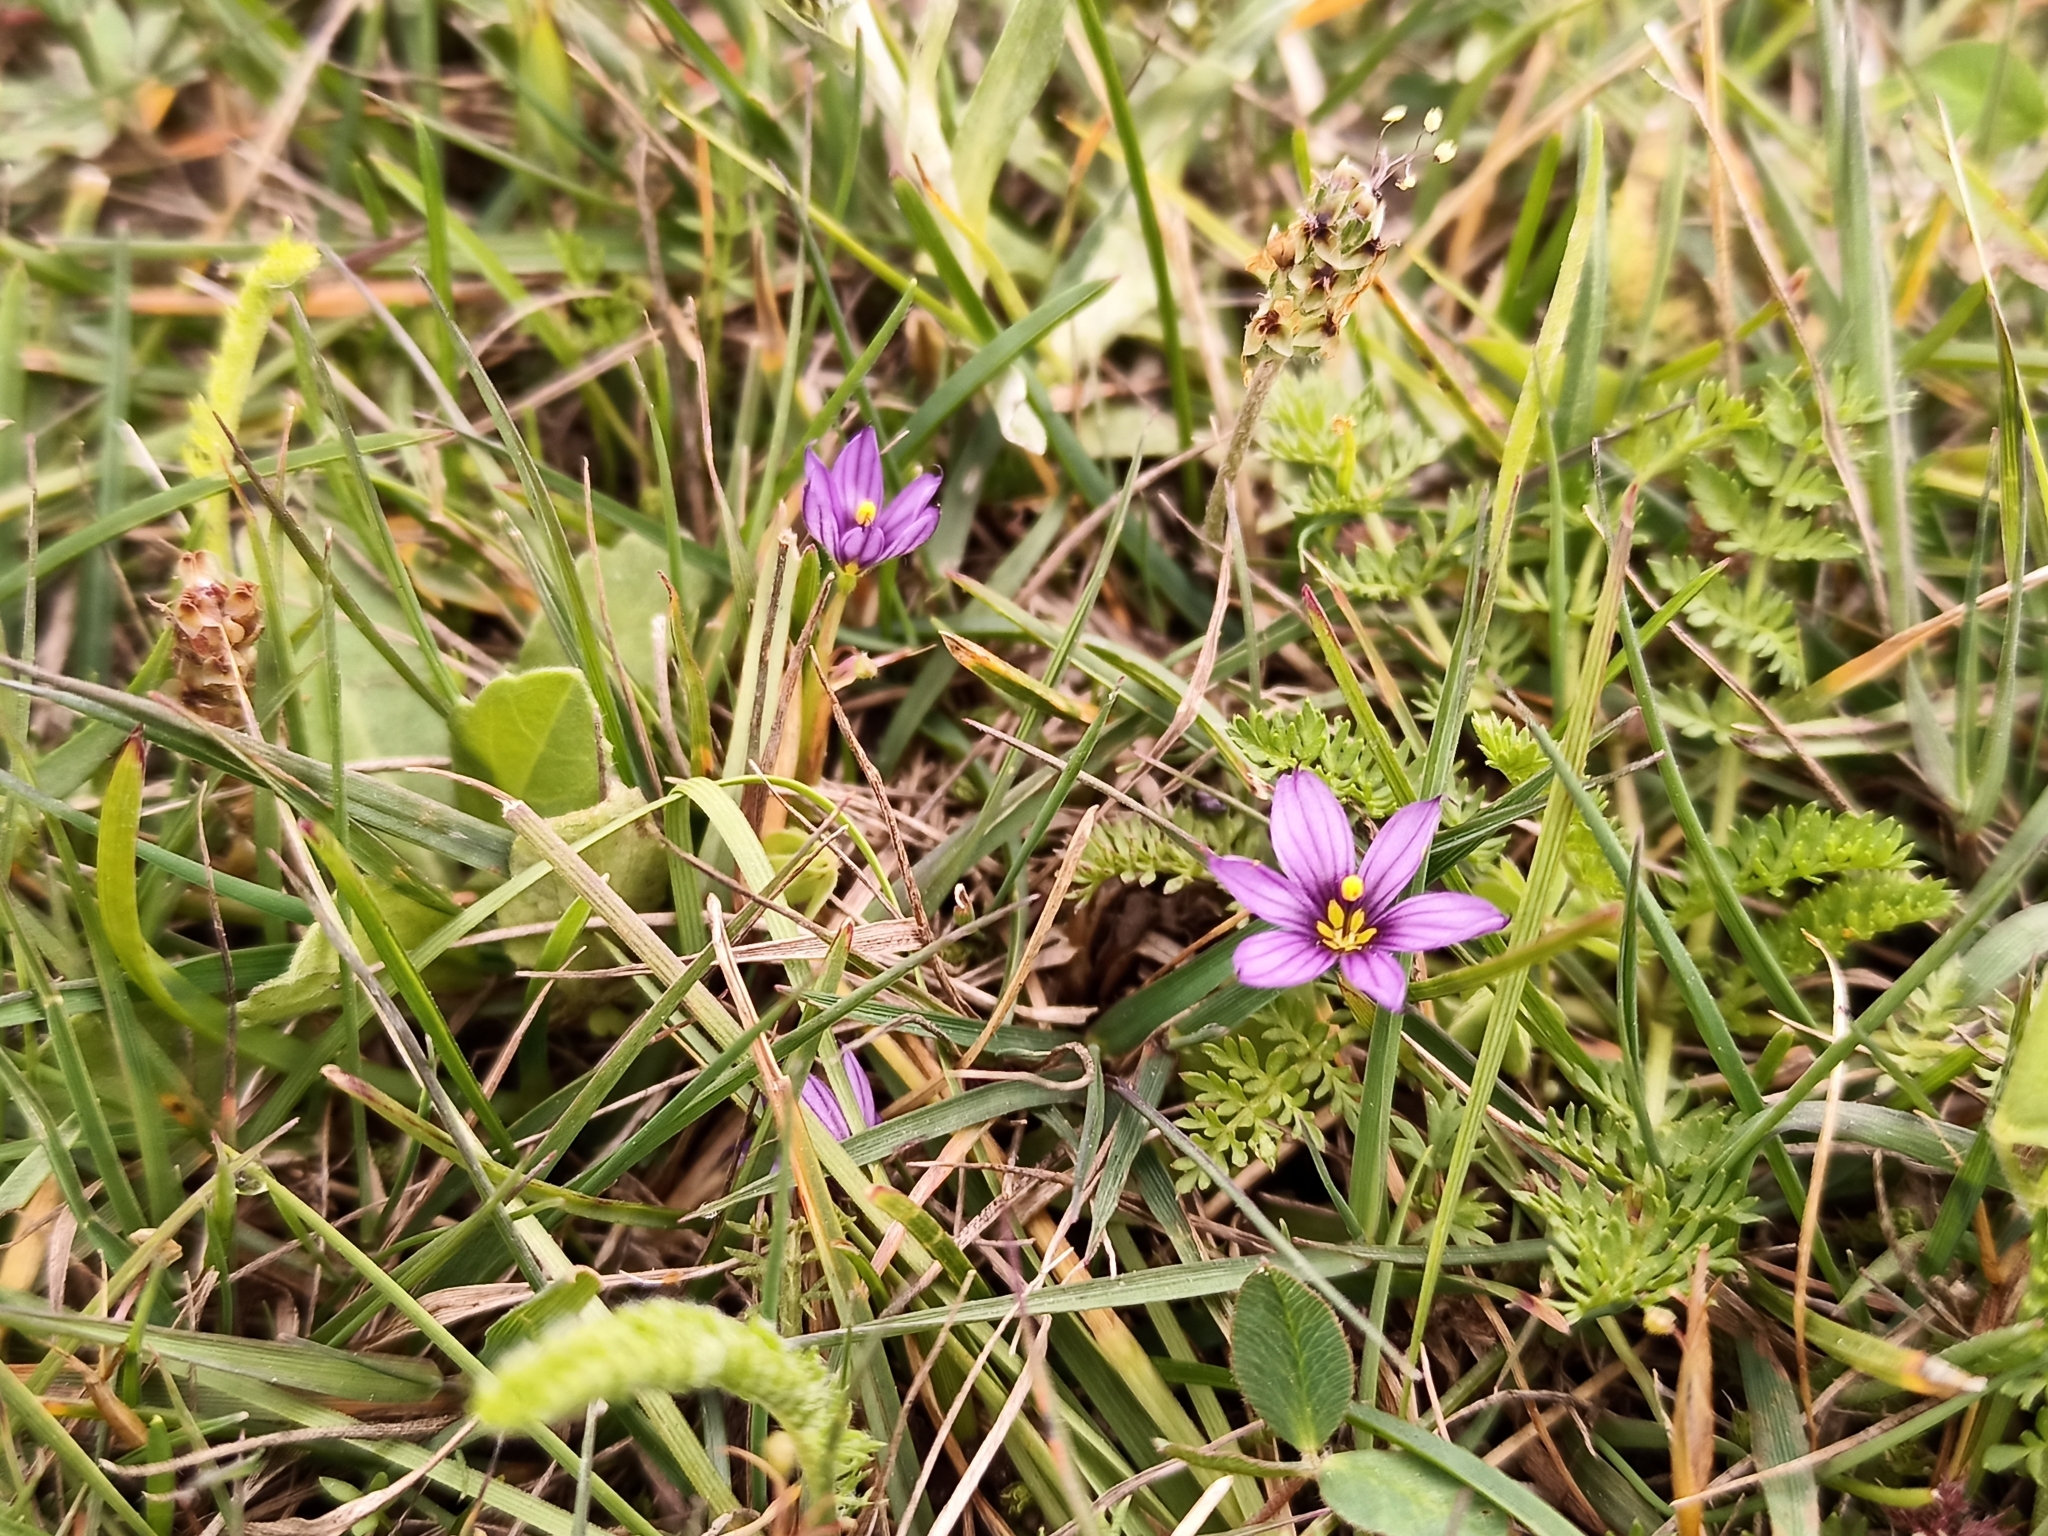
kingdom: Plantae
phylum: Tracheophyta
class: Liliopsida
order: Asparagales
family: Iridaceae
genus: Sisyrinchium
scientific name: Sisyrinchium scabrum
